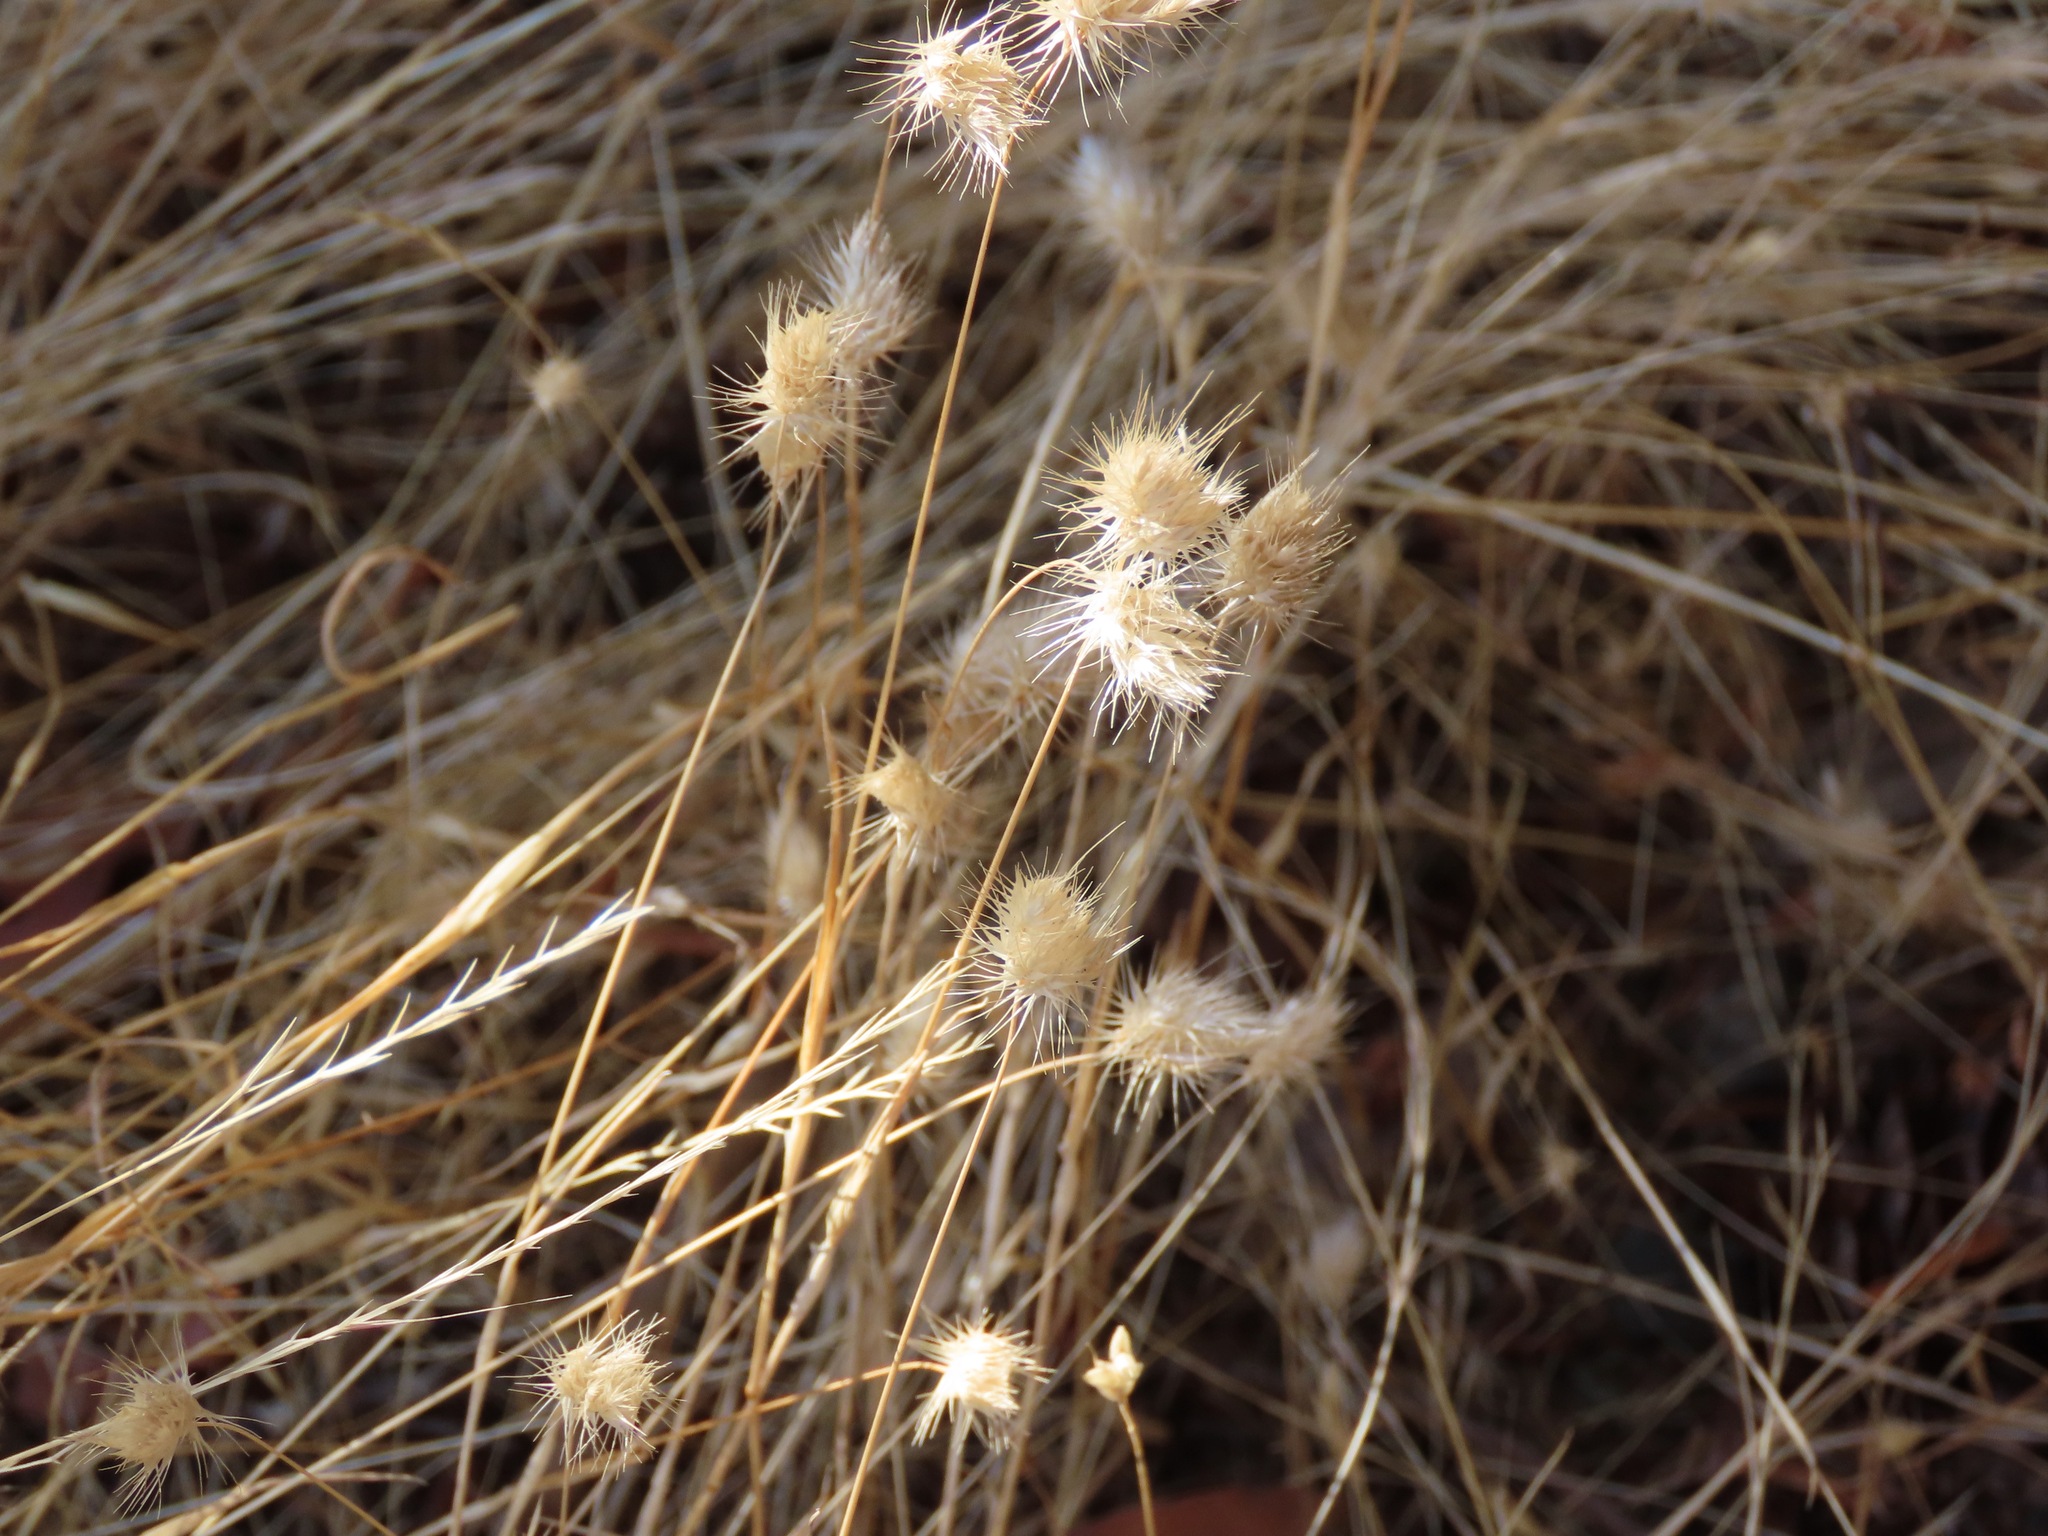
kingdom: Plantae
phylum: Tracheophyta
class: Liliopsida
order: Poales
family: Poaceae
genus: Cynosurus
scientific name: Cynosurus echinatus
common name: Rough dog's-tail
